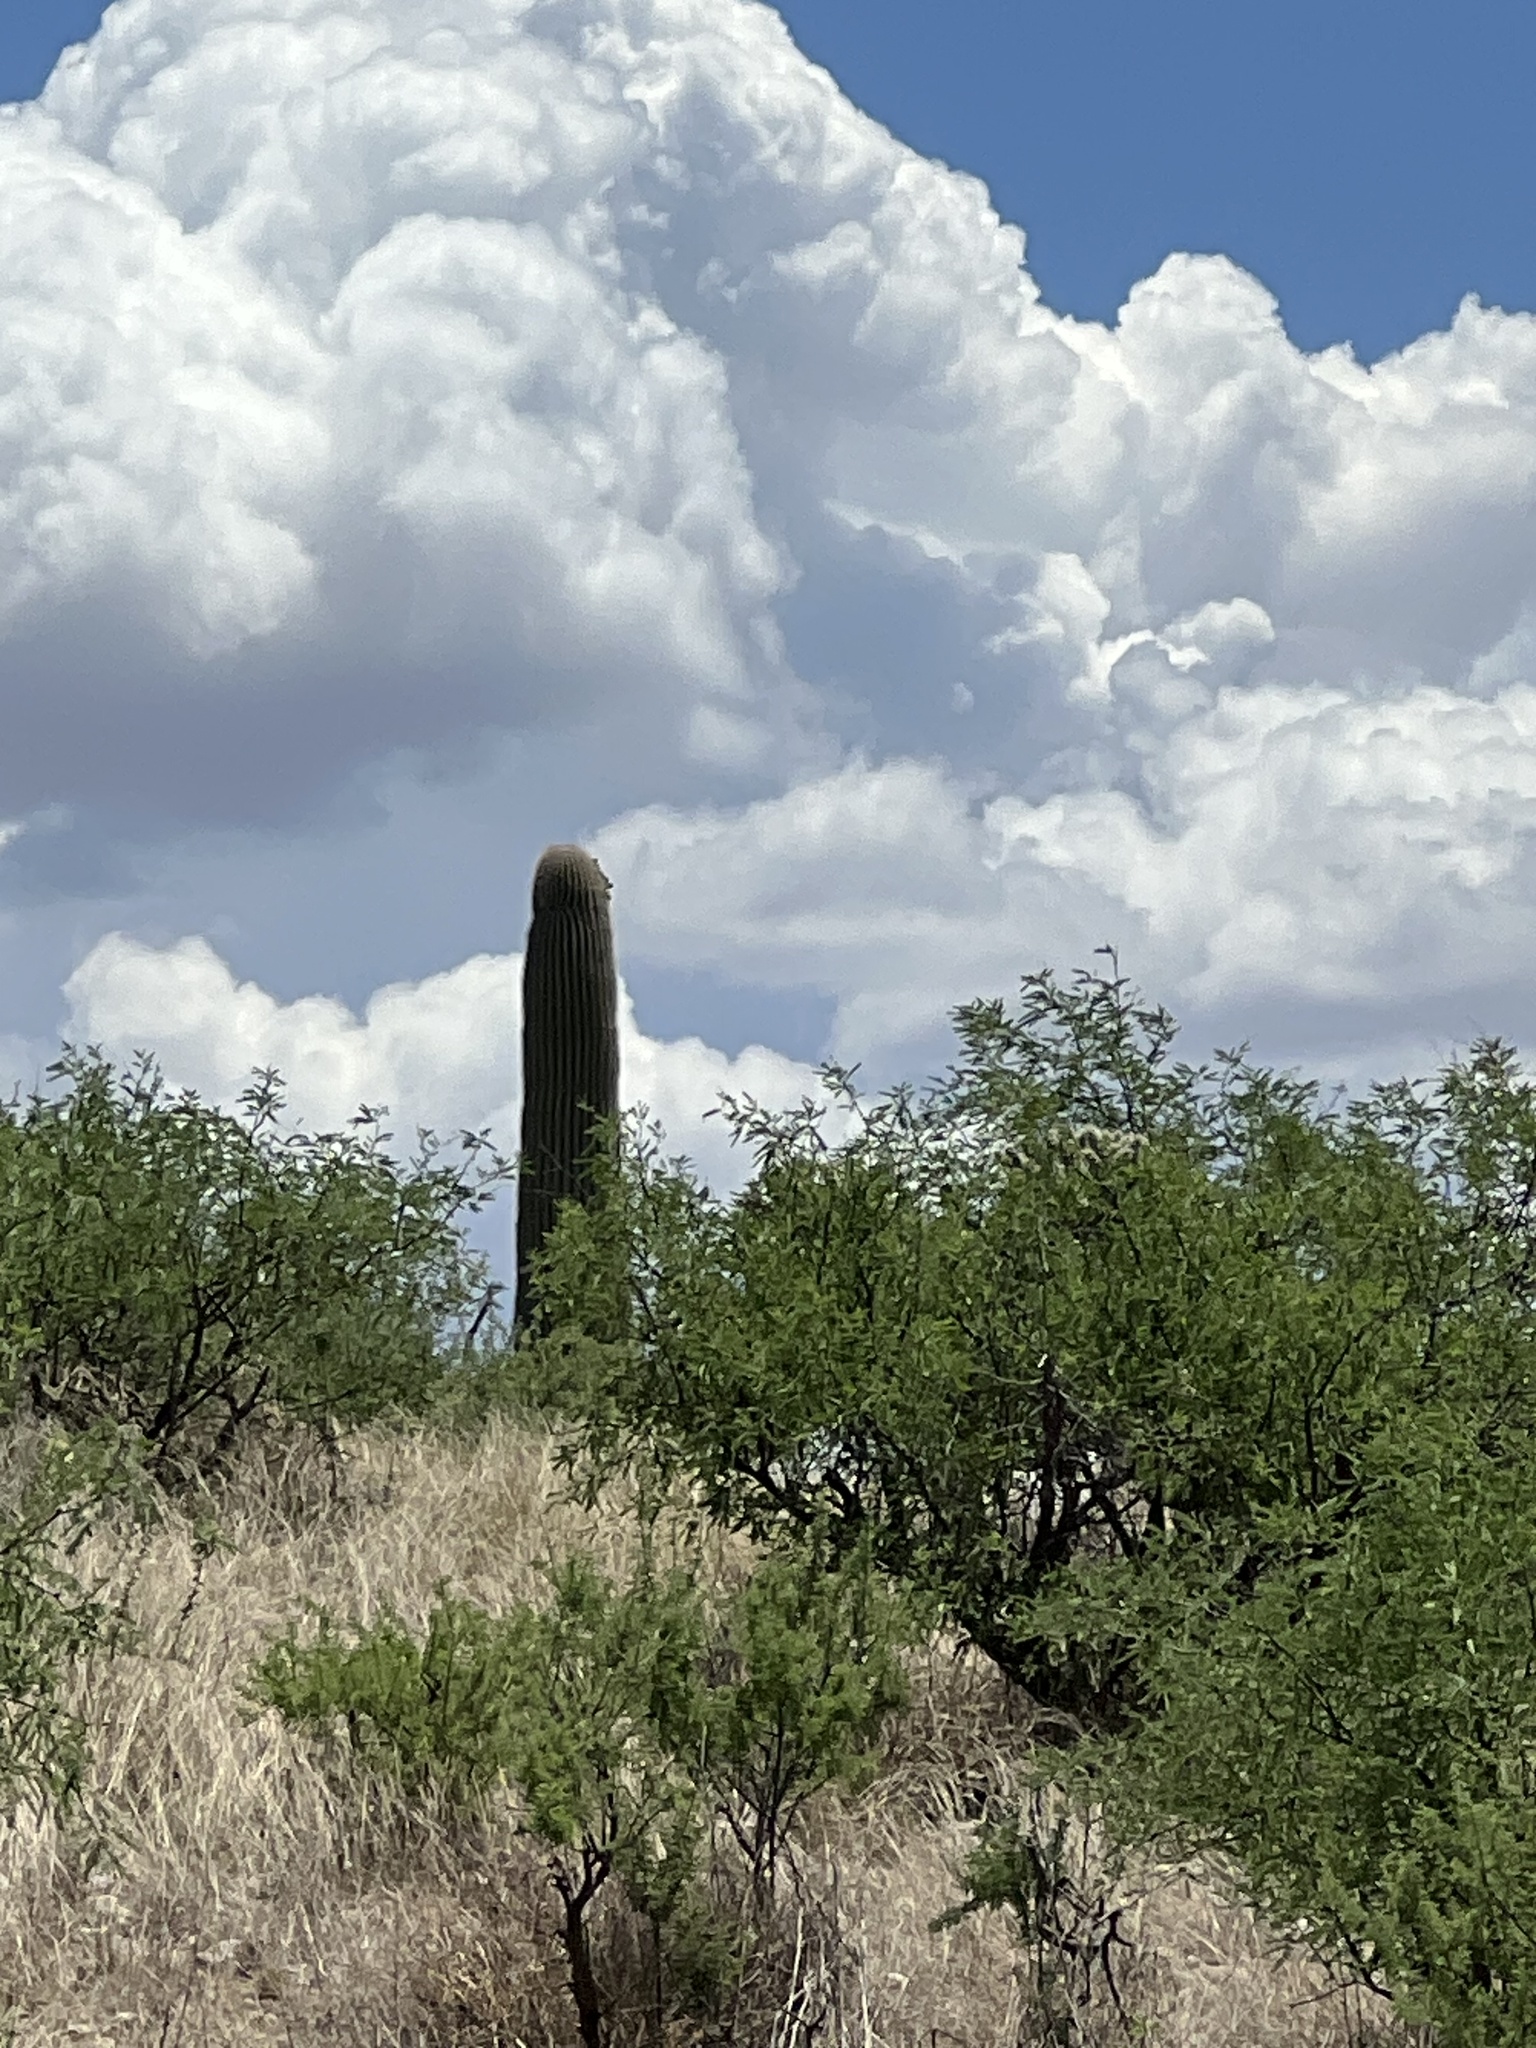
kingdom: Plantae
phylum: Tracheophyta
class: Magnoliopsida
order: Caryophyllales
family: Cactaceae
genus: Carnegiea
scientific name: Carnegiea gigantea
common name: Saguaro
